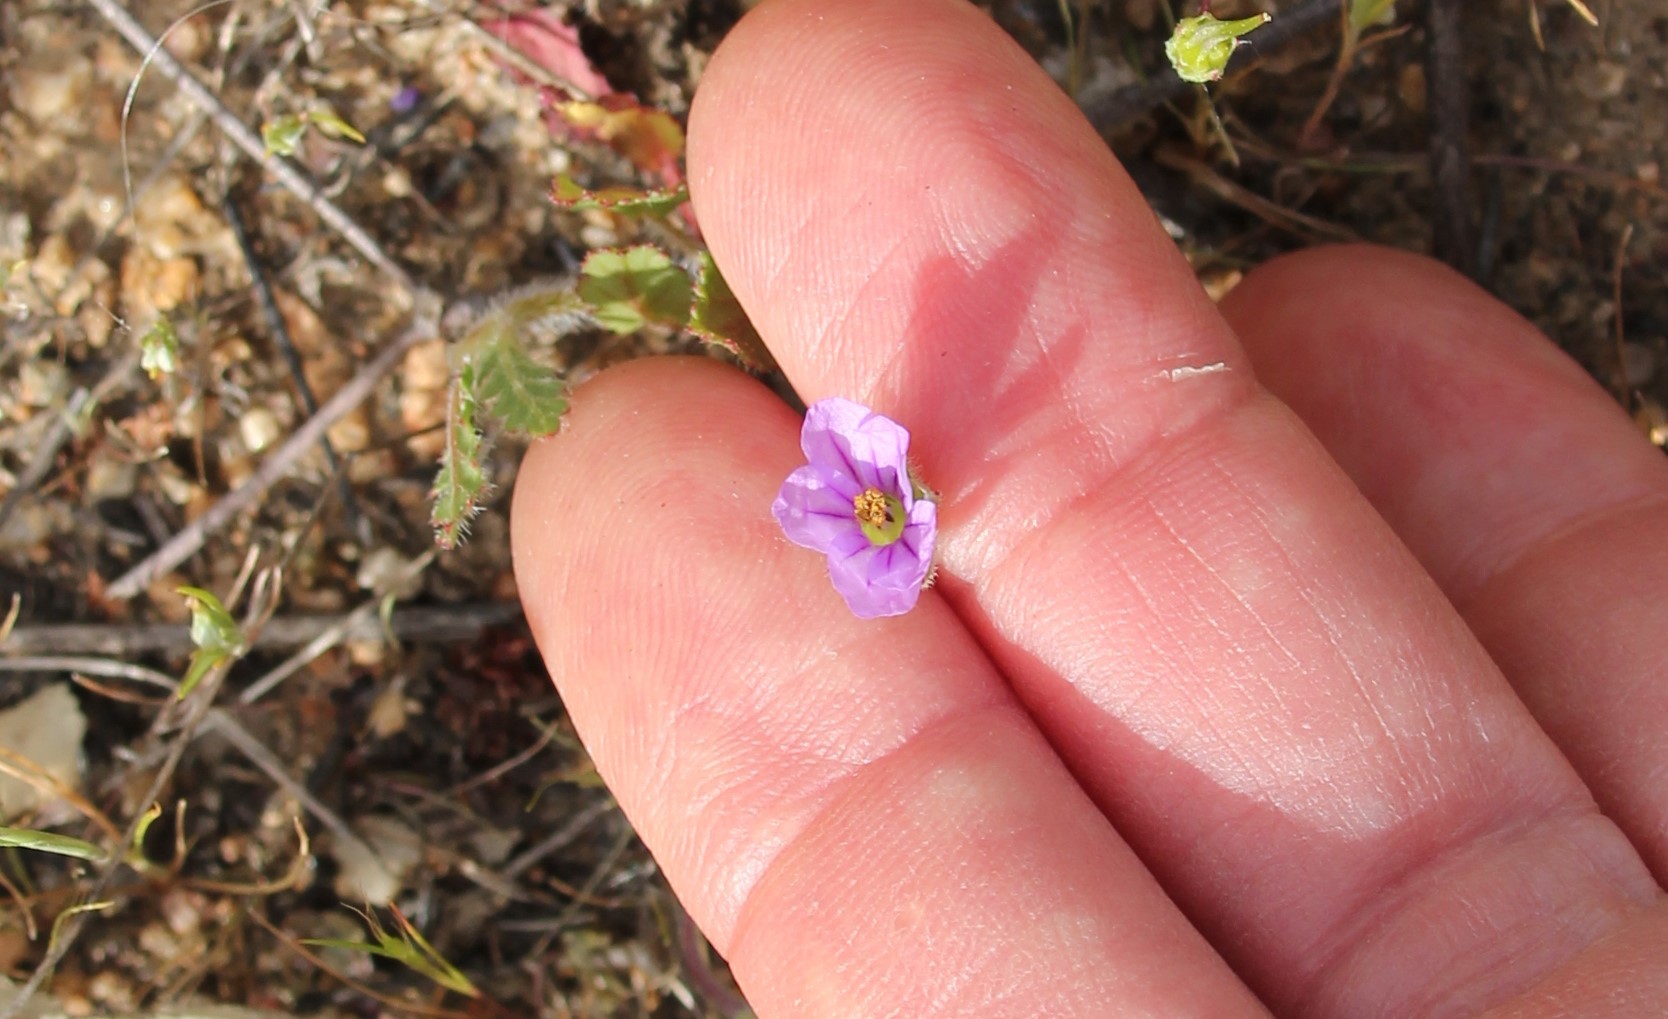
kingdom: Plantae
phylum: Tracheophyta
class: Magnoliopsida
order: Geraniales
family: Geraniaceae
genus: Erodium
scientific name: Erodium botrys
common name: Mediterranean stork's-bill
